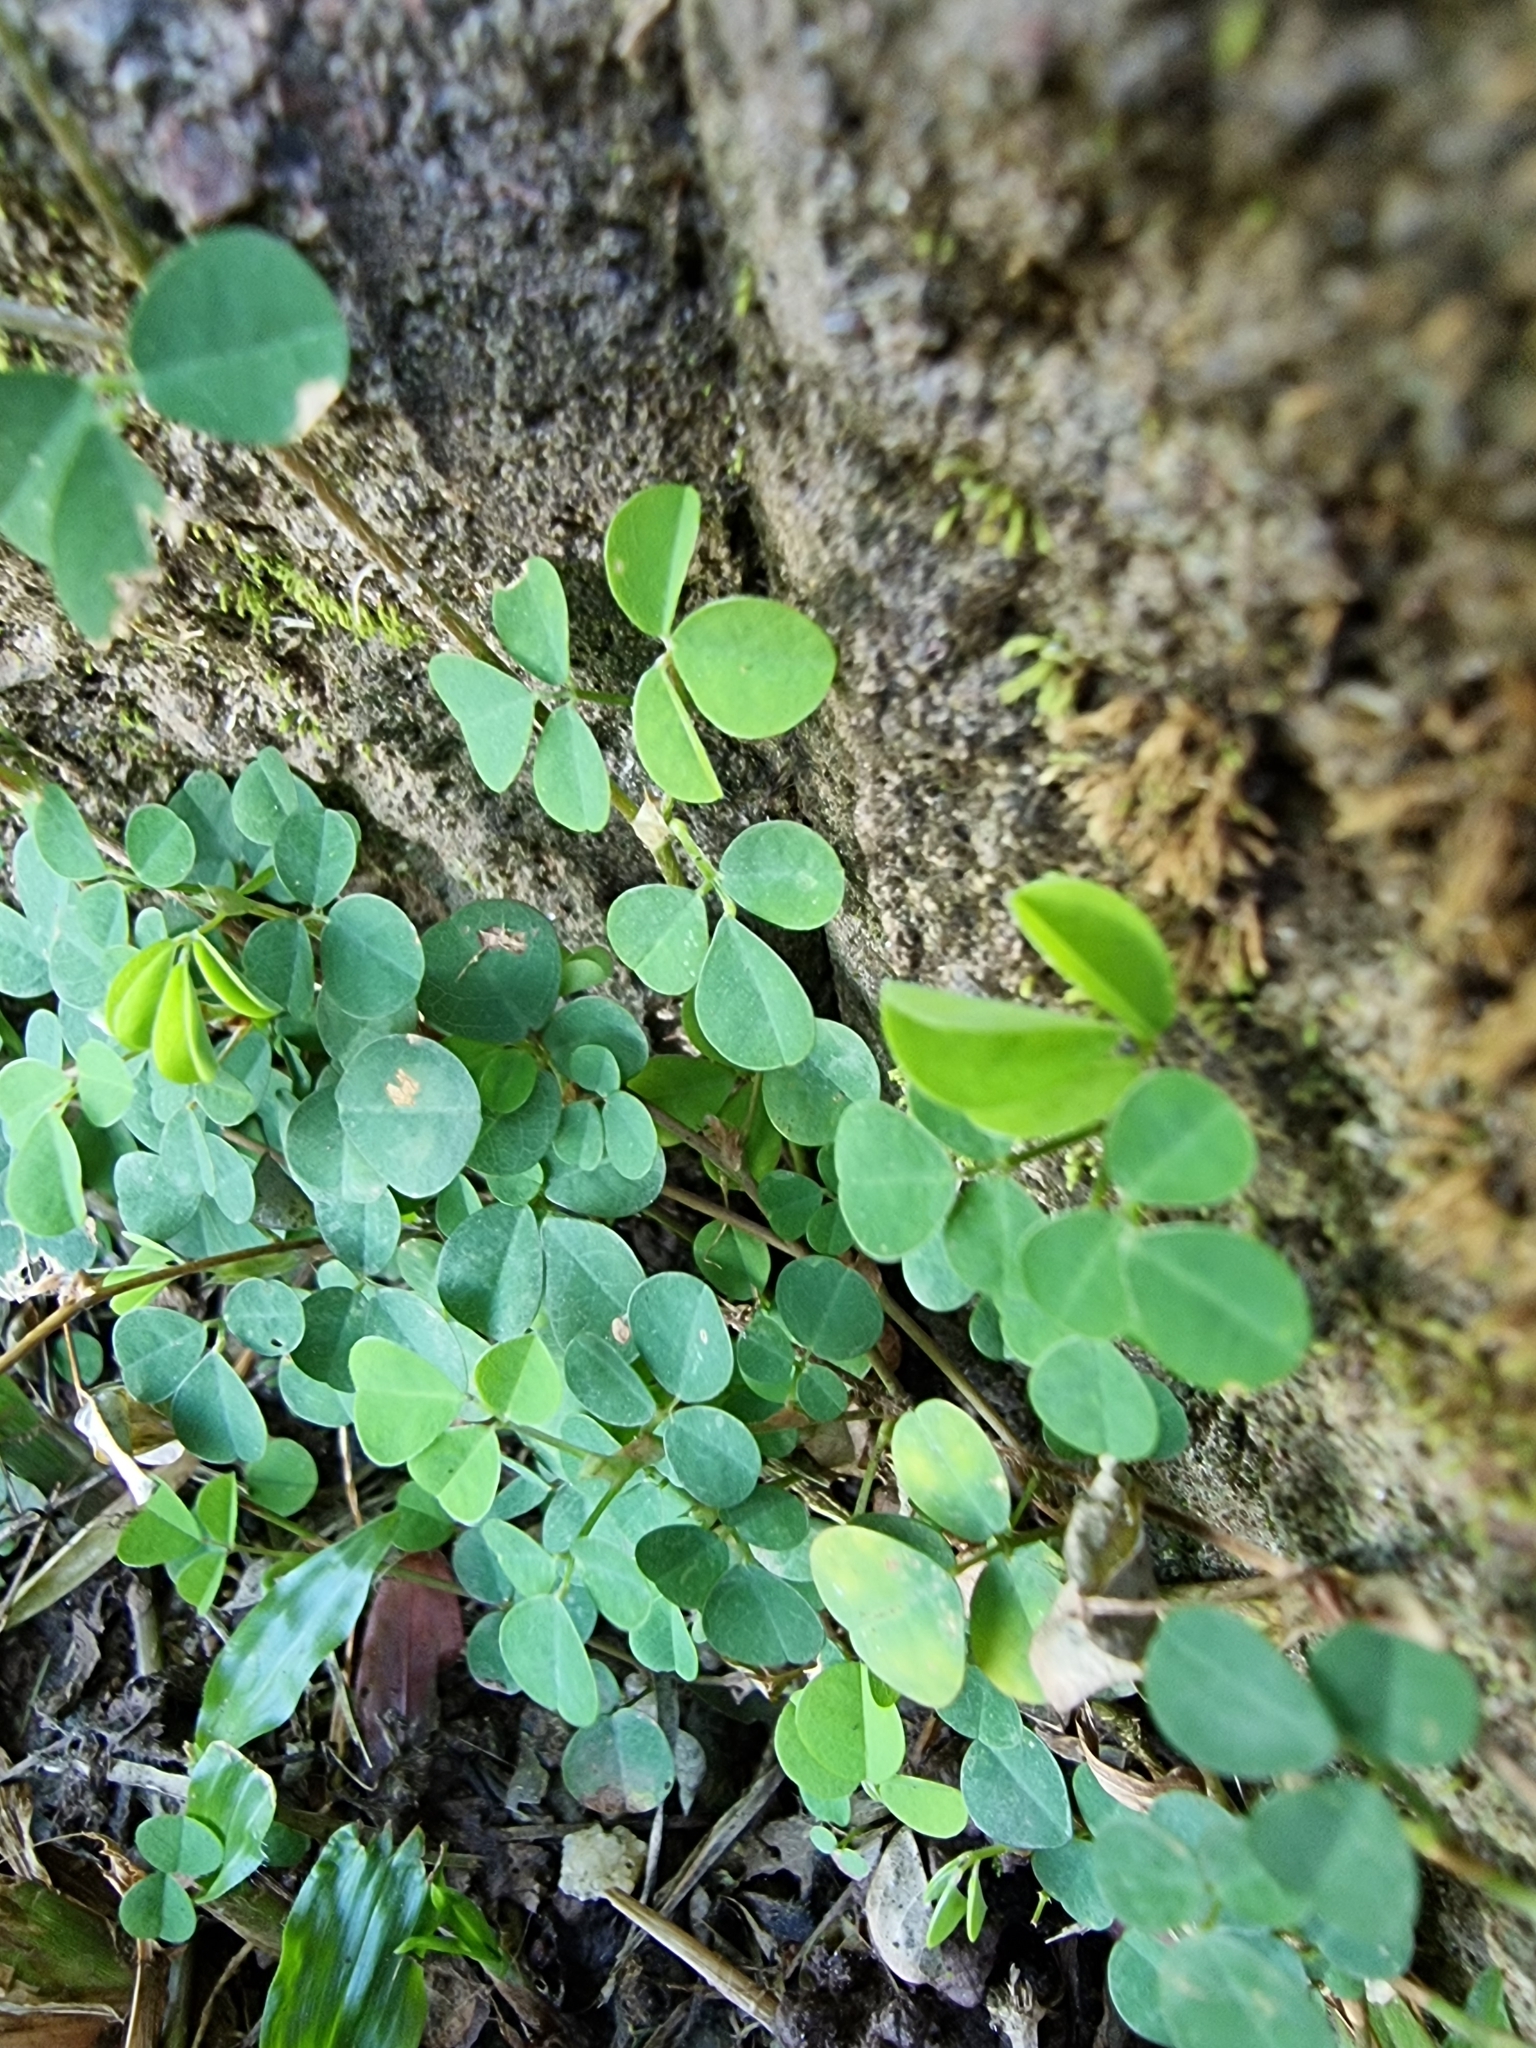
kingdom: Plantae
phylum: Tracheophyta
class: Magnoliopsida
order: Fabales
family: Fabaceae
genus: Grona
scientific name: Grona triflora
